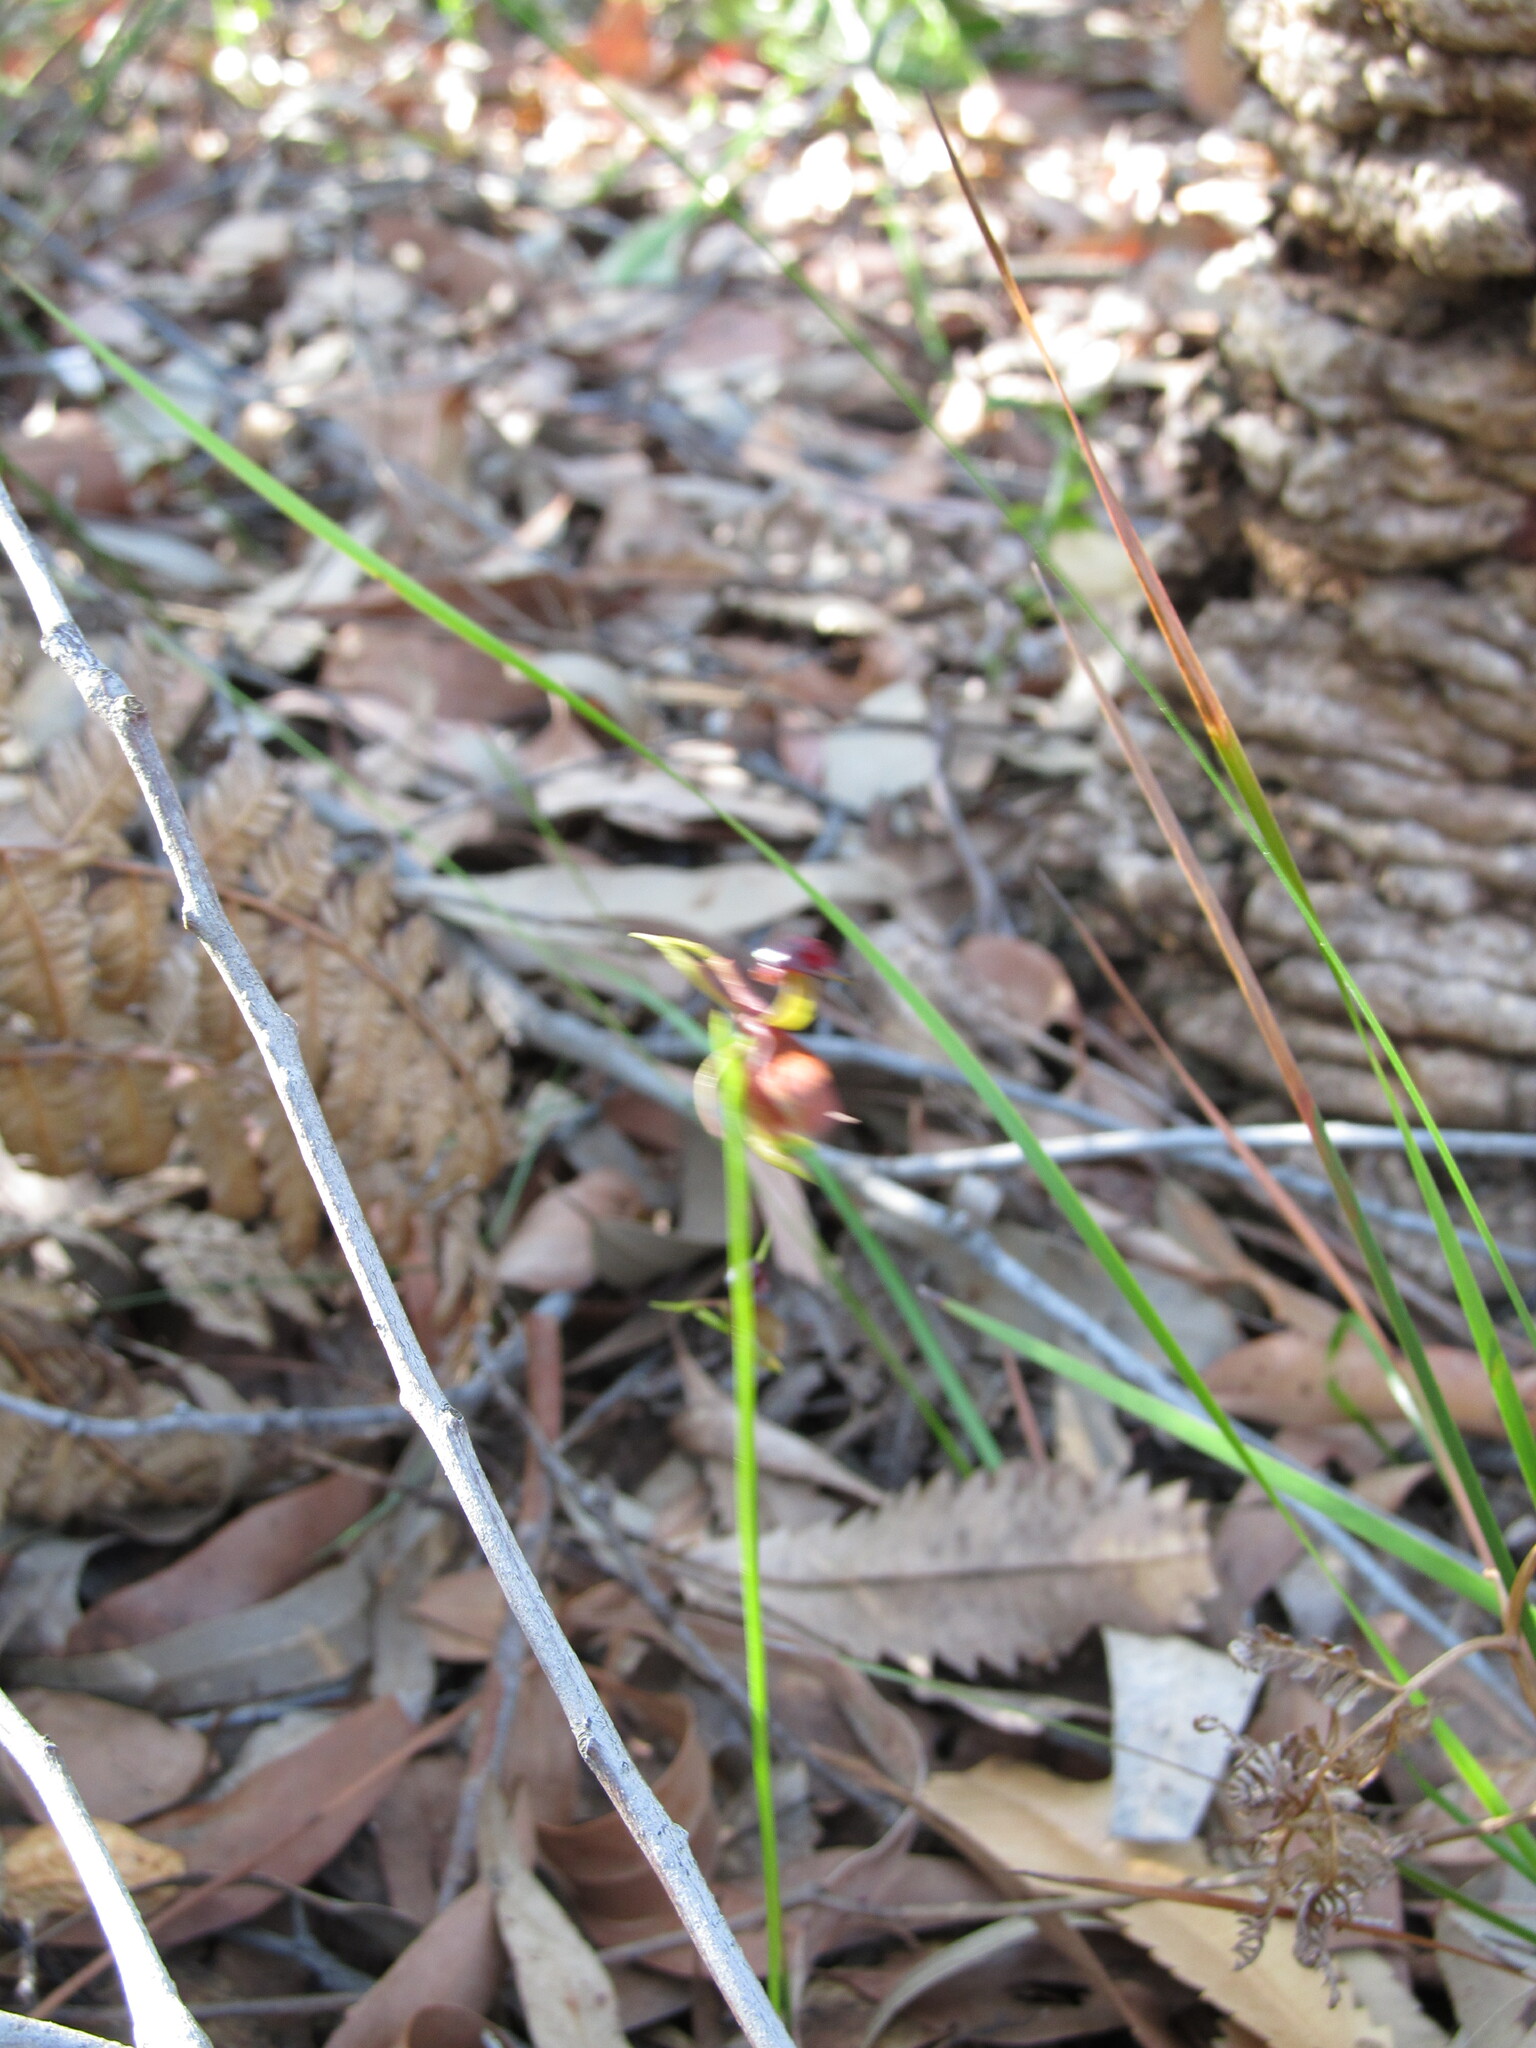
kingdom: Plantae
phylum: Tracheophyta
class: Liliopsida
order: Asparagales
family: Orchidaceae
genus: Caleana
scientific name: Caleana major
